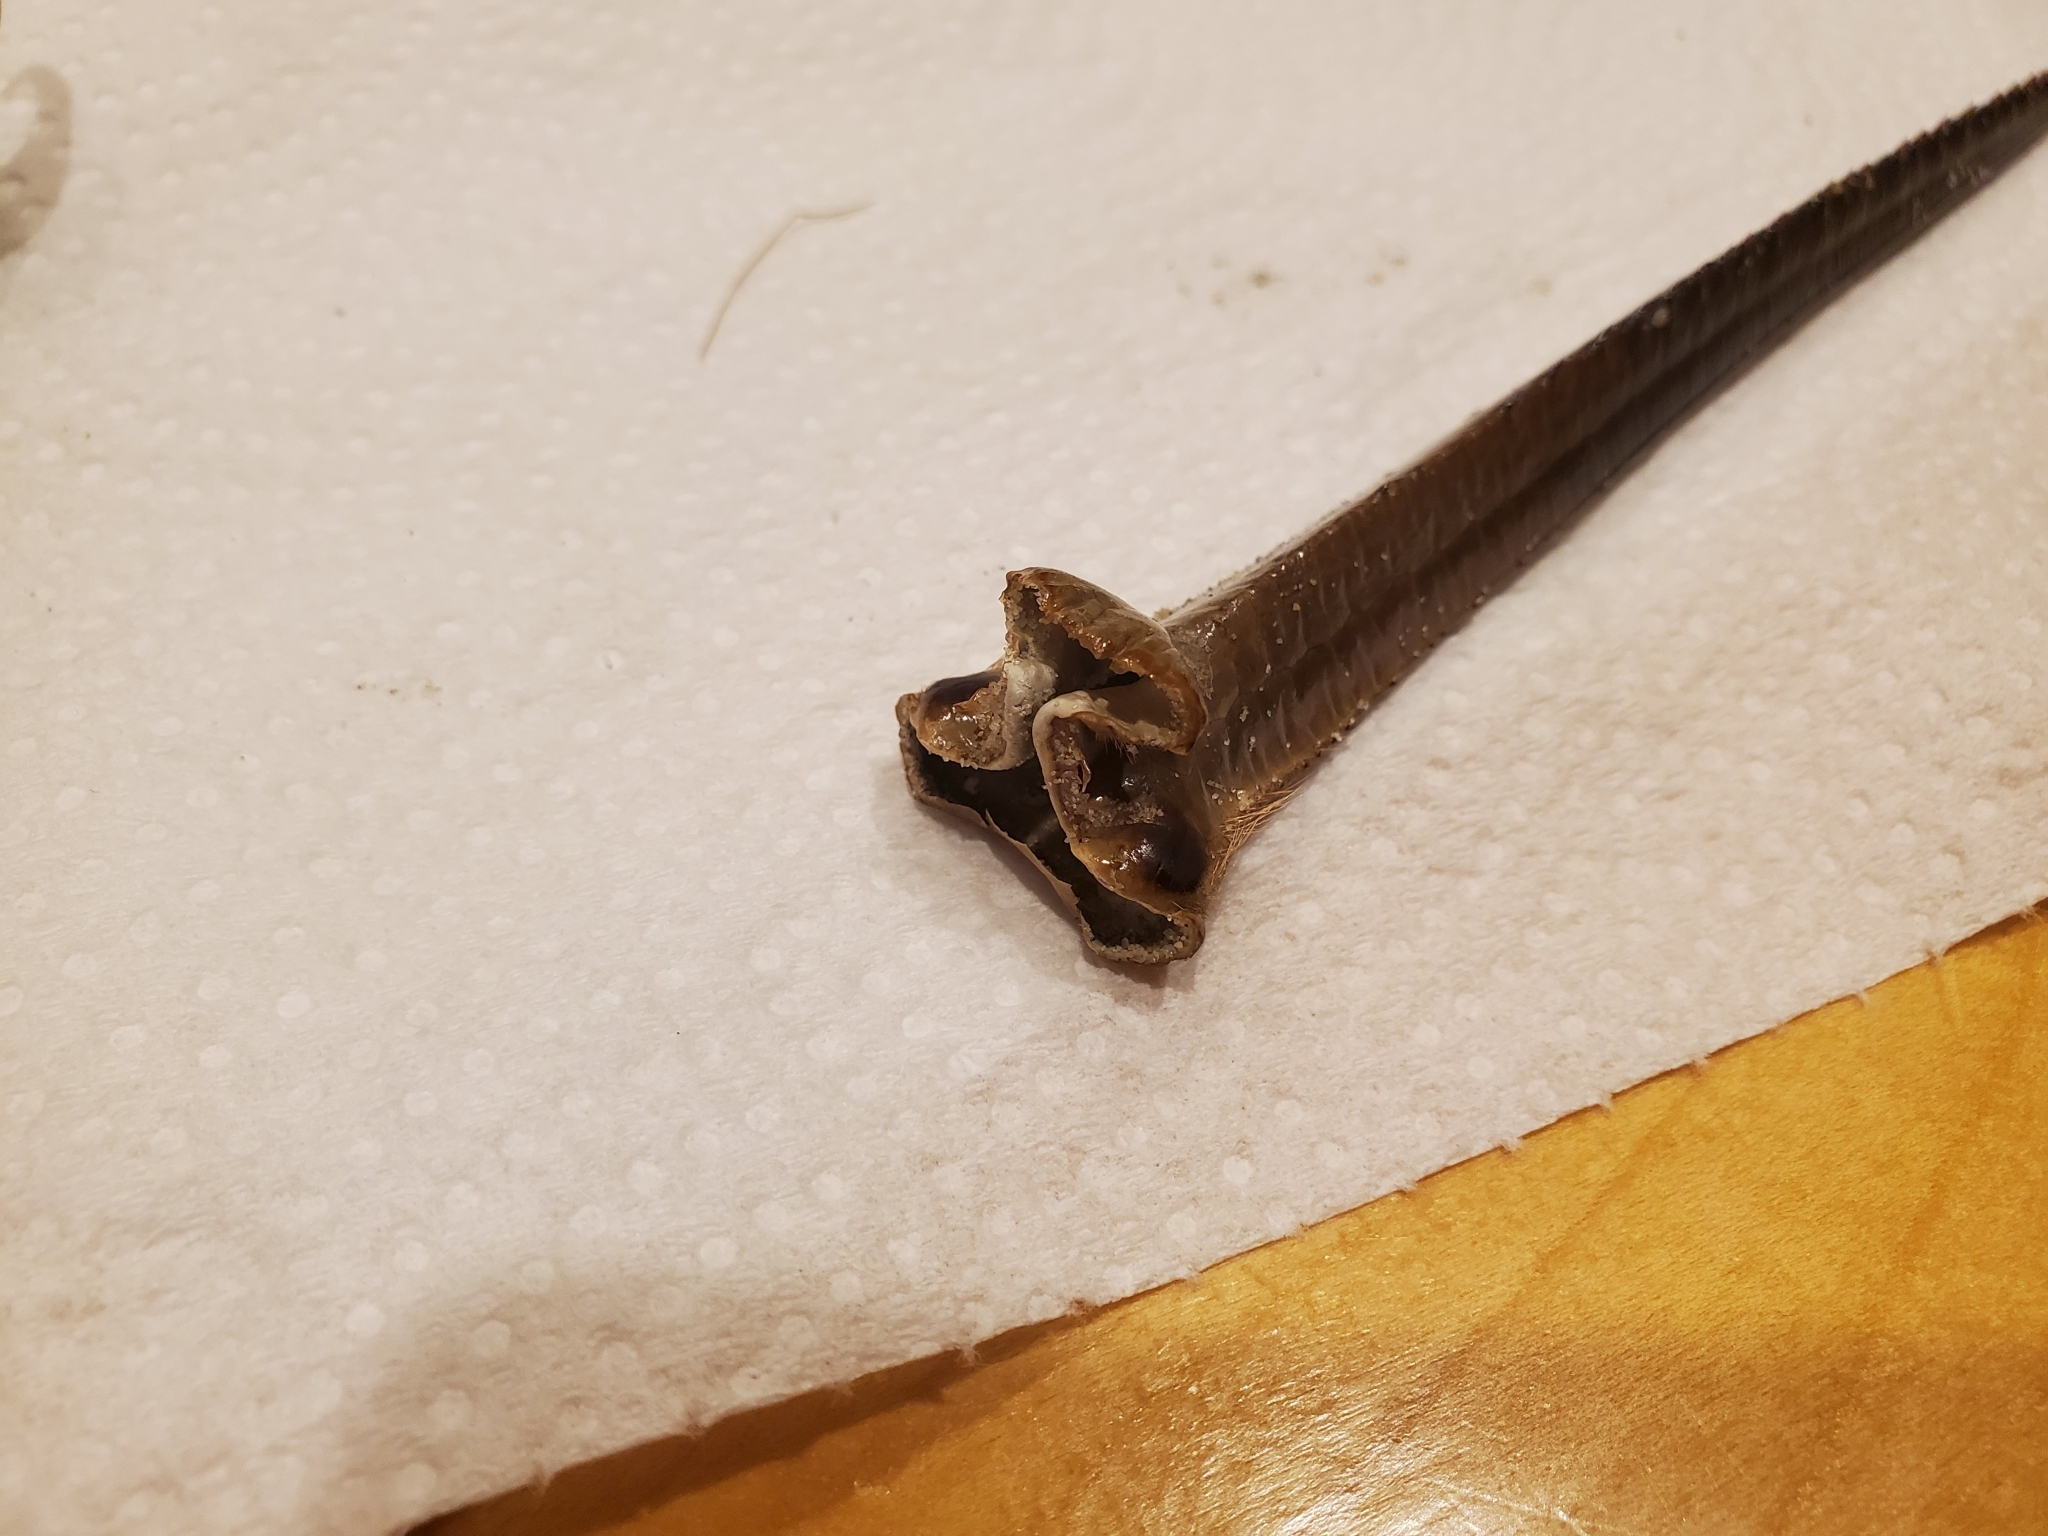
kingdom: Animalia
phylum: Arthropoda
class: Merostomata
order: Xiphosurida
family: Limulidae
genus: Limulus
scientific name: Limulus polyphemus
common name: Horseshoe crab
